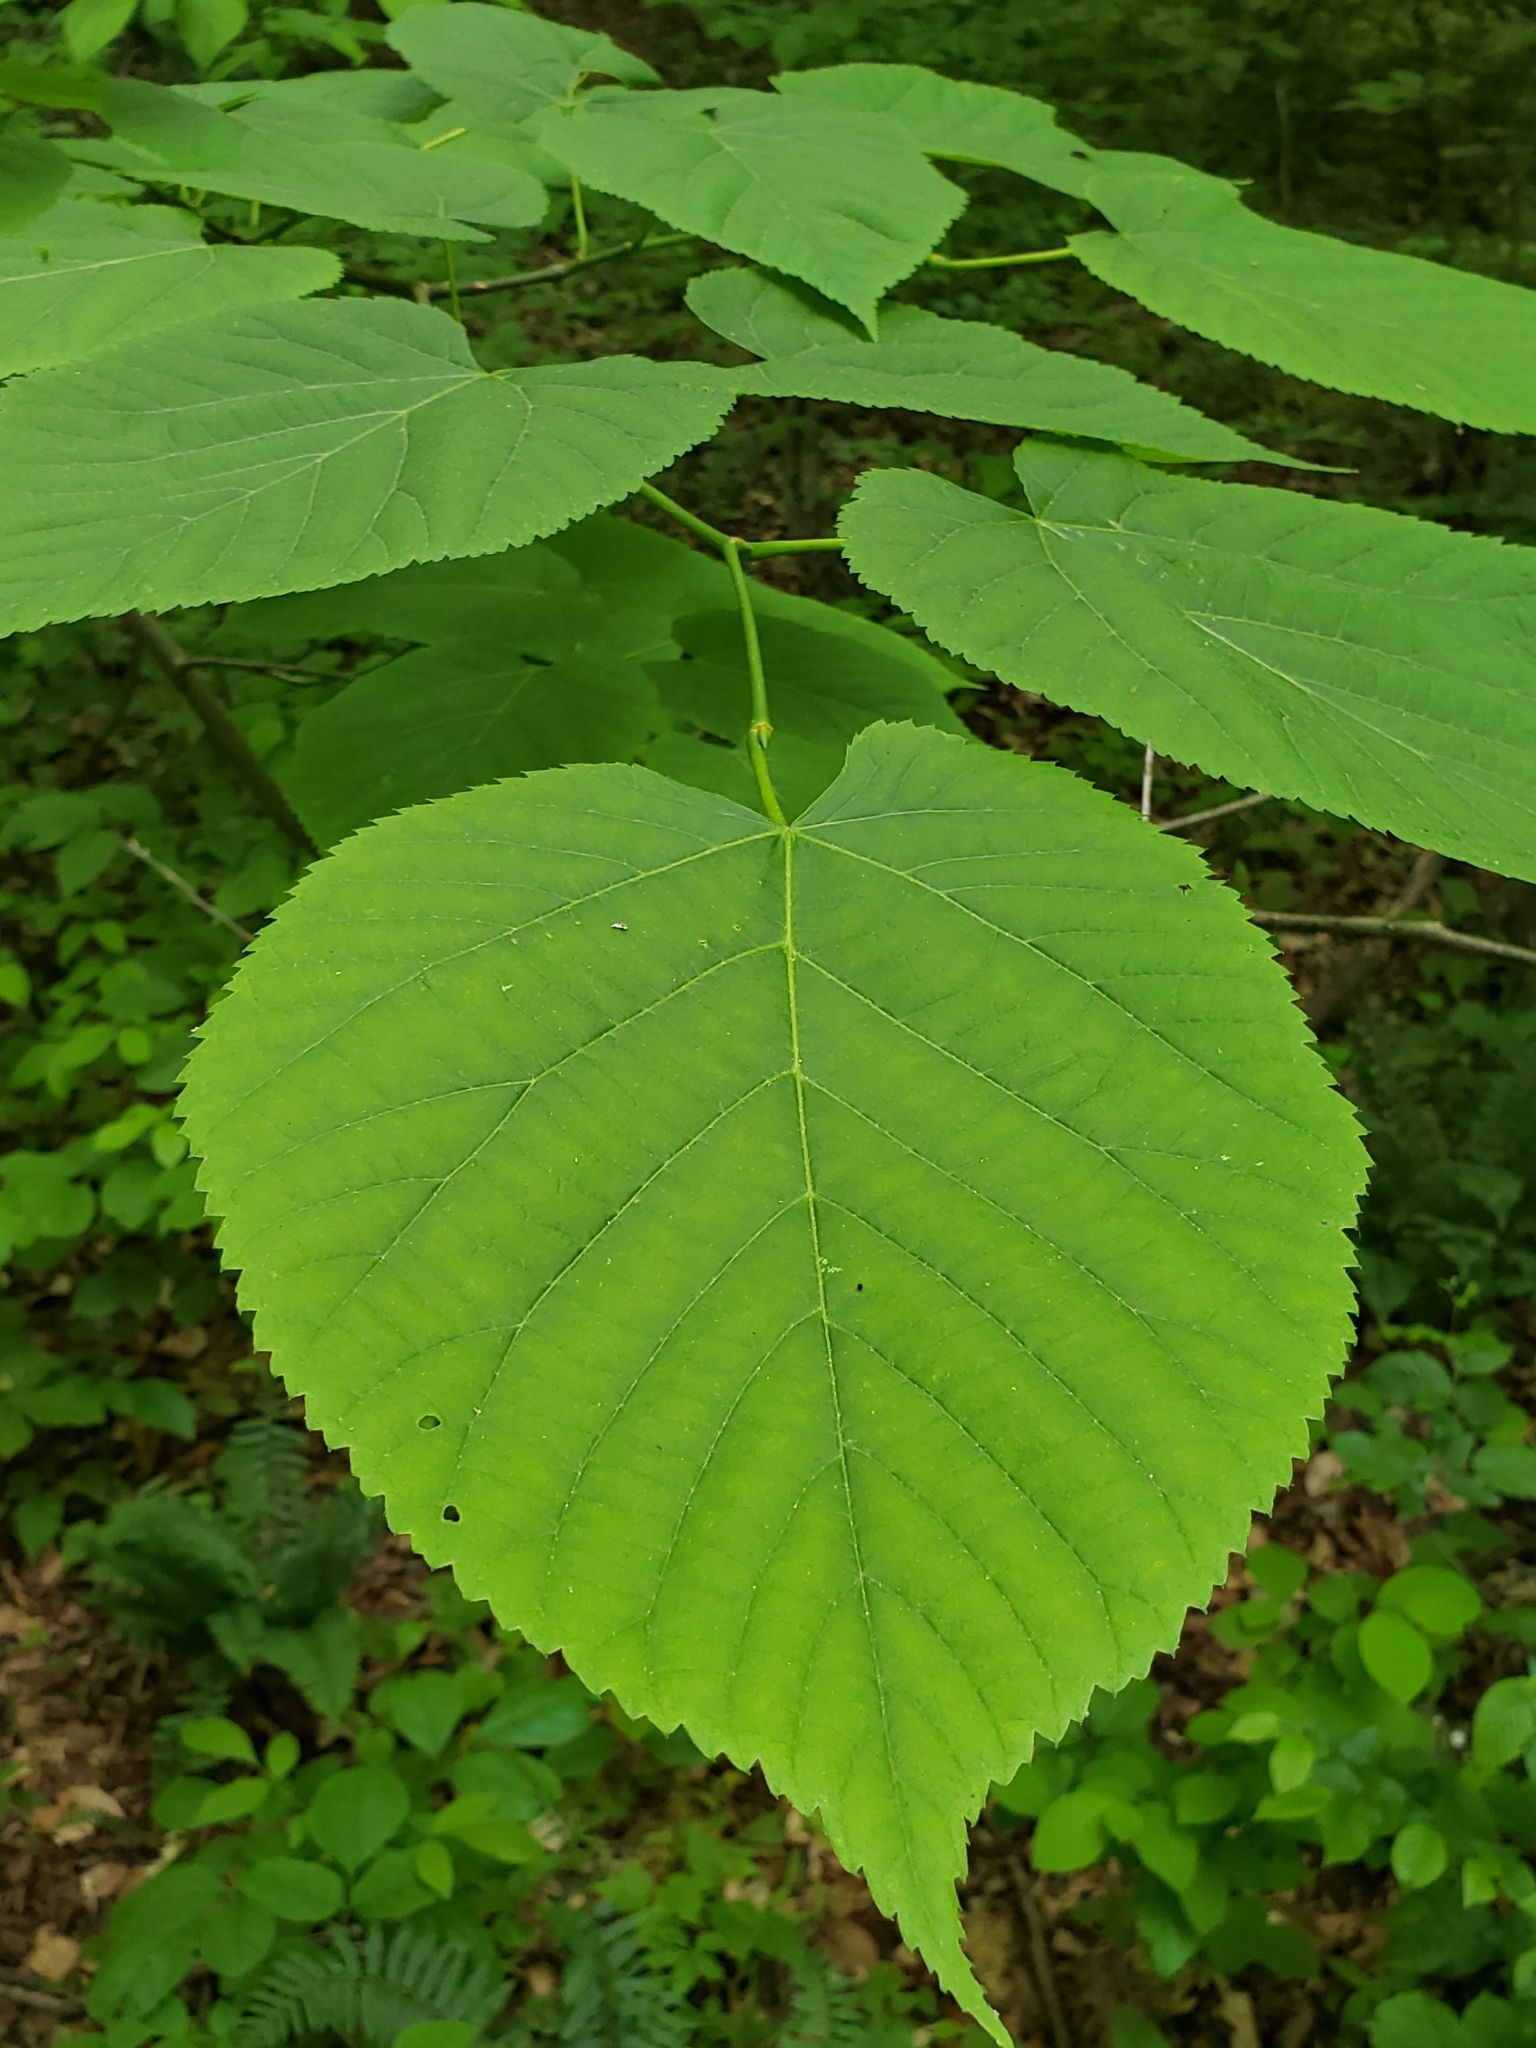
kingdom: Animalia
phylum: Arthropoda
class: Arachnida
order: Trombidiformes
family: Eriophyidae
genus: Eriophyes
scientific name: Eriophyes tiliae
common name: Red nail gall mite
